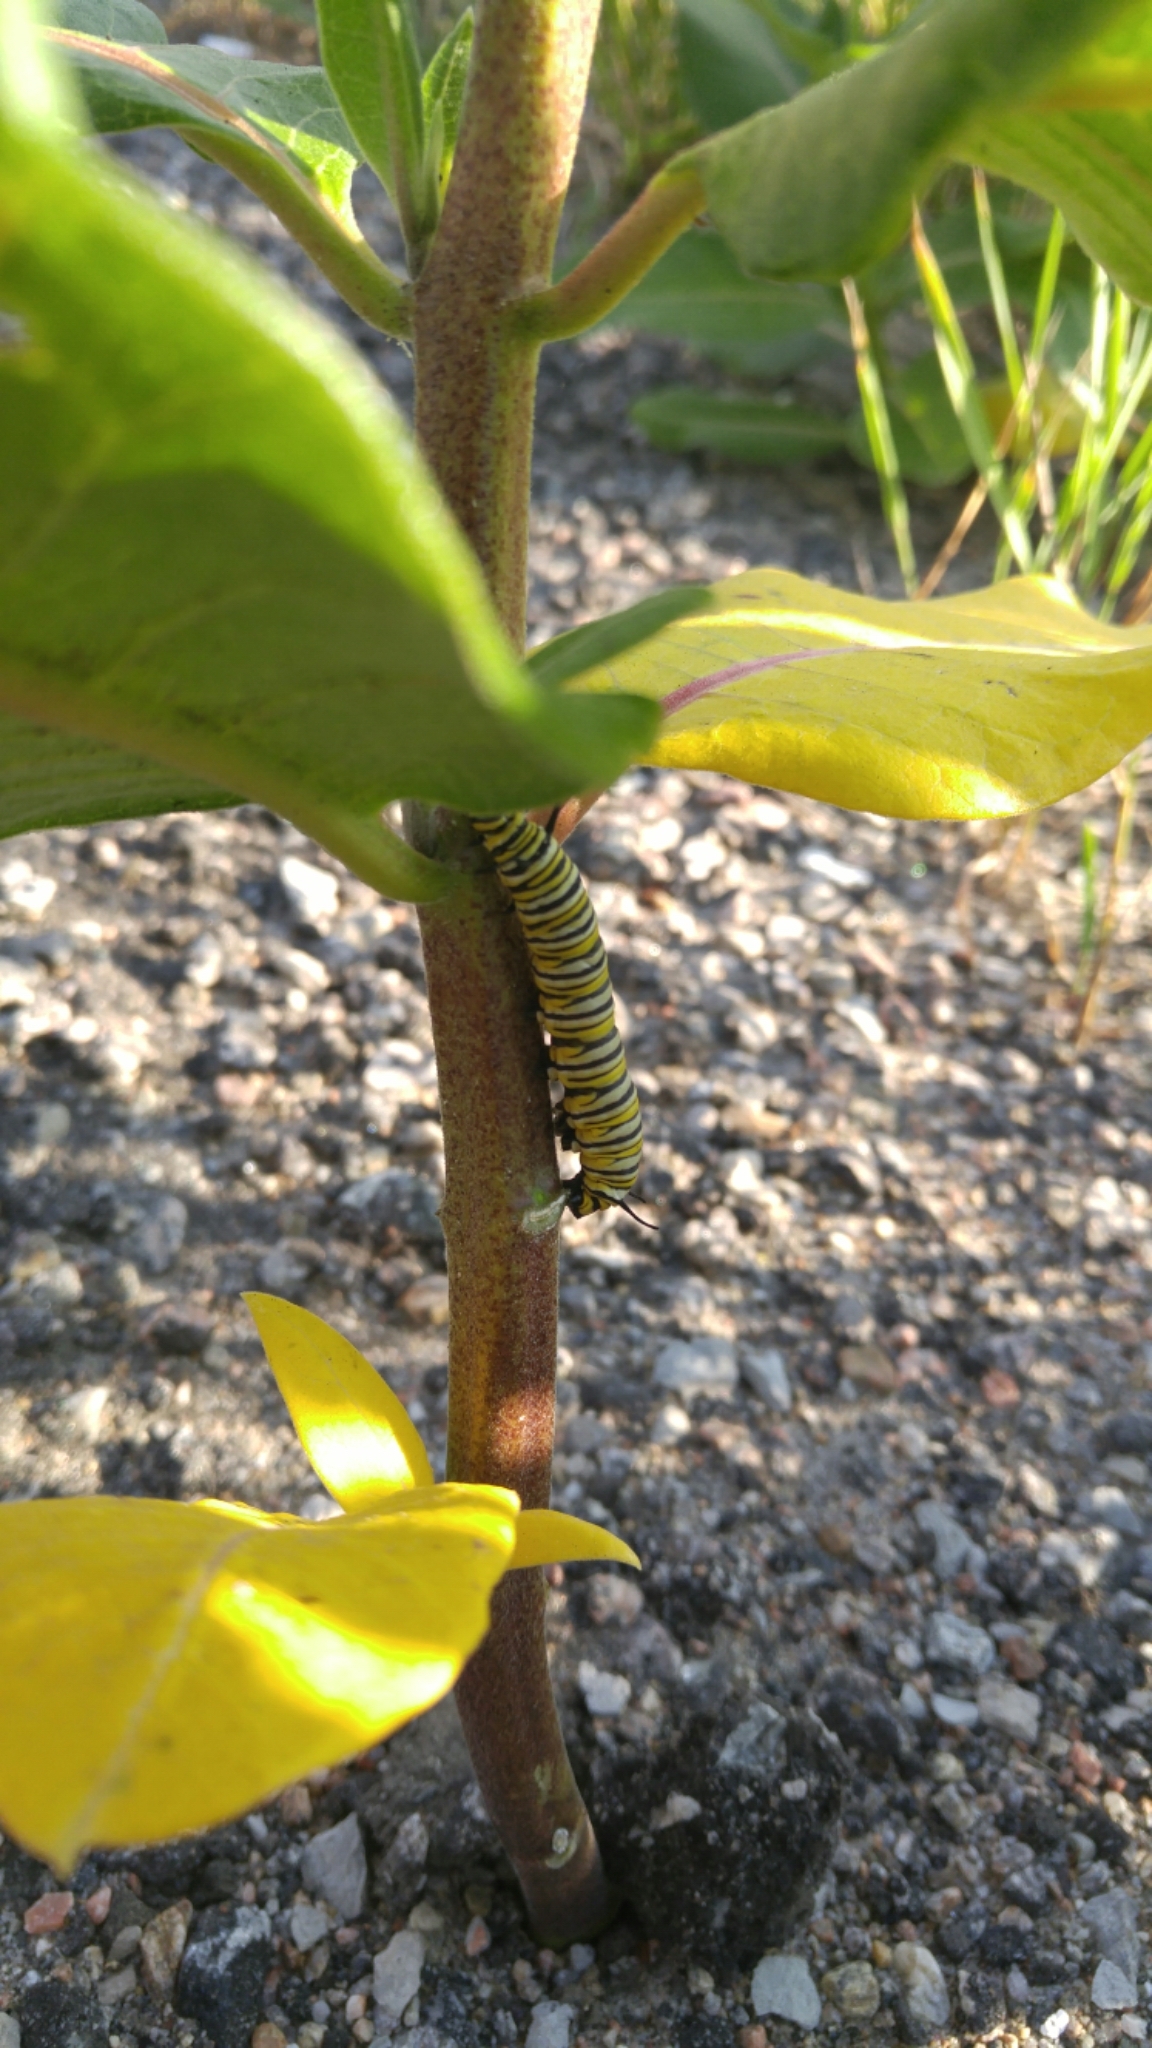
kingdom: Animalia
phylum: Arthropoda
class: Insecta
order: Lepidoptera
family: Nymphalidae
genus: Danaus
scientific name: Danaus plexippus
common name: Monarch
